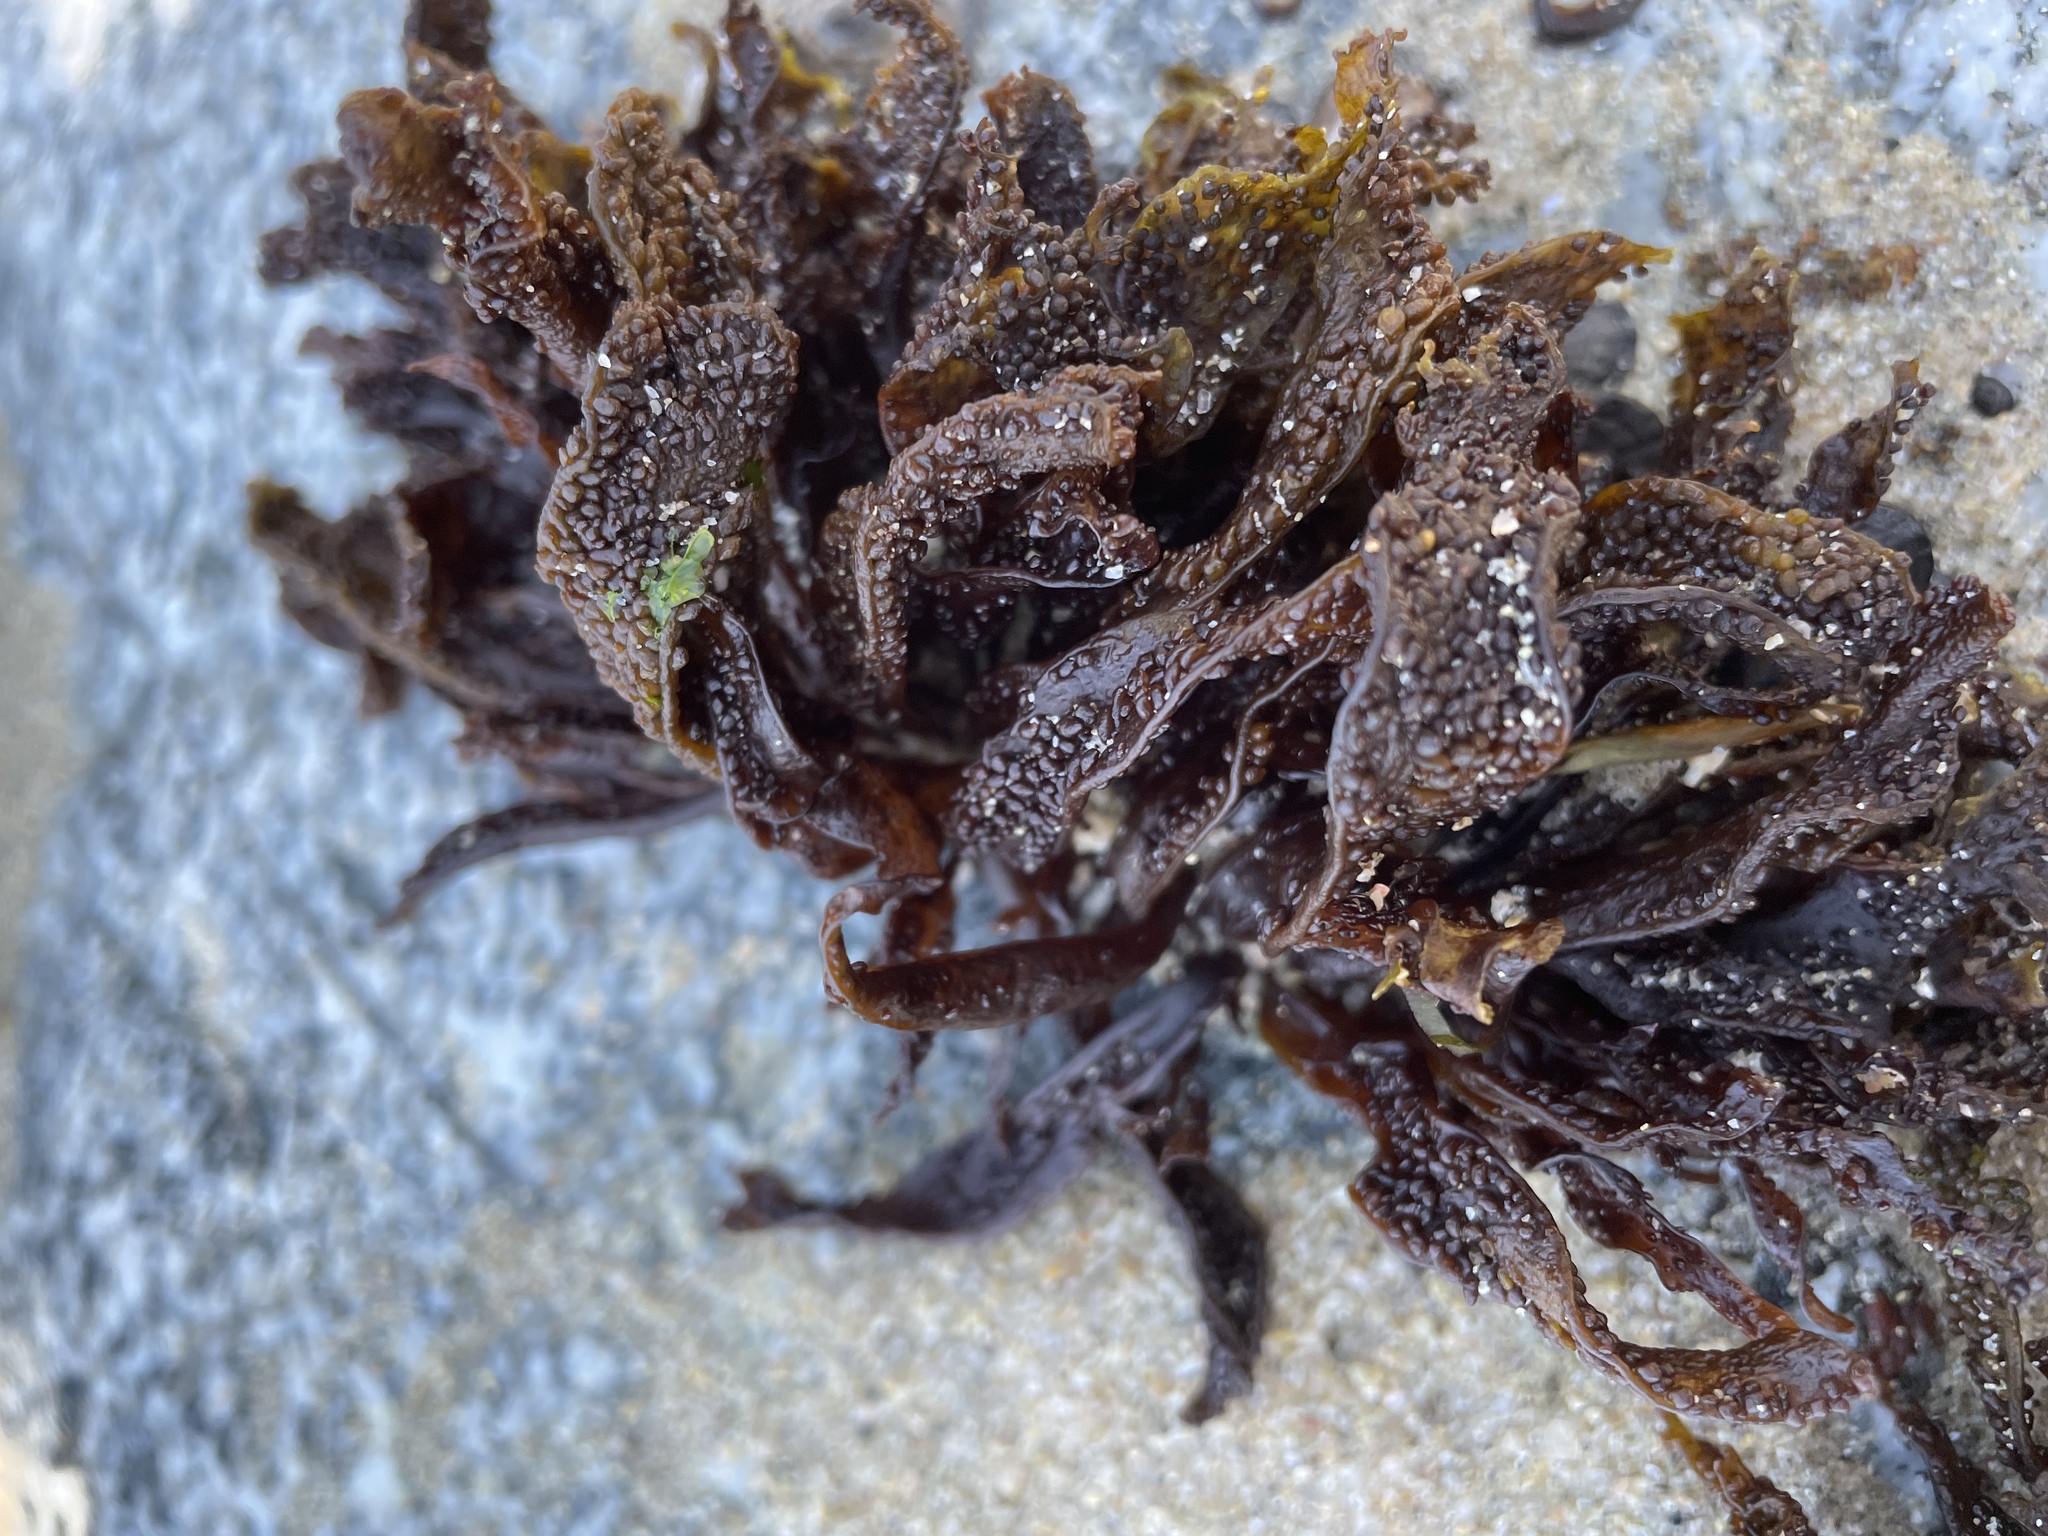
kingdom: Plantae
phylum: Rhodophyta
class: Florideophyceae
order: Gigartinales
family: Phyllophoraceae
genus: Mastocarpus
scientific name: Mastocarpus papillatus
